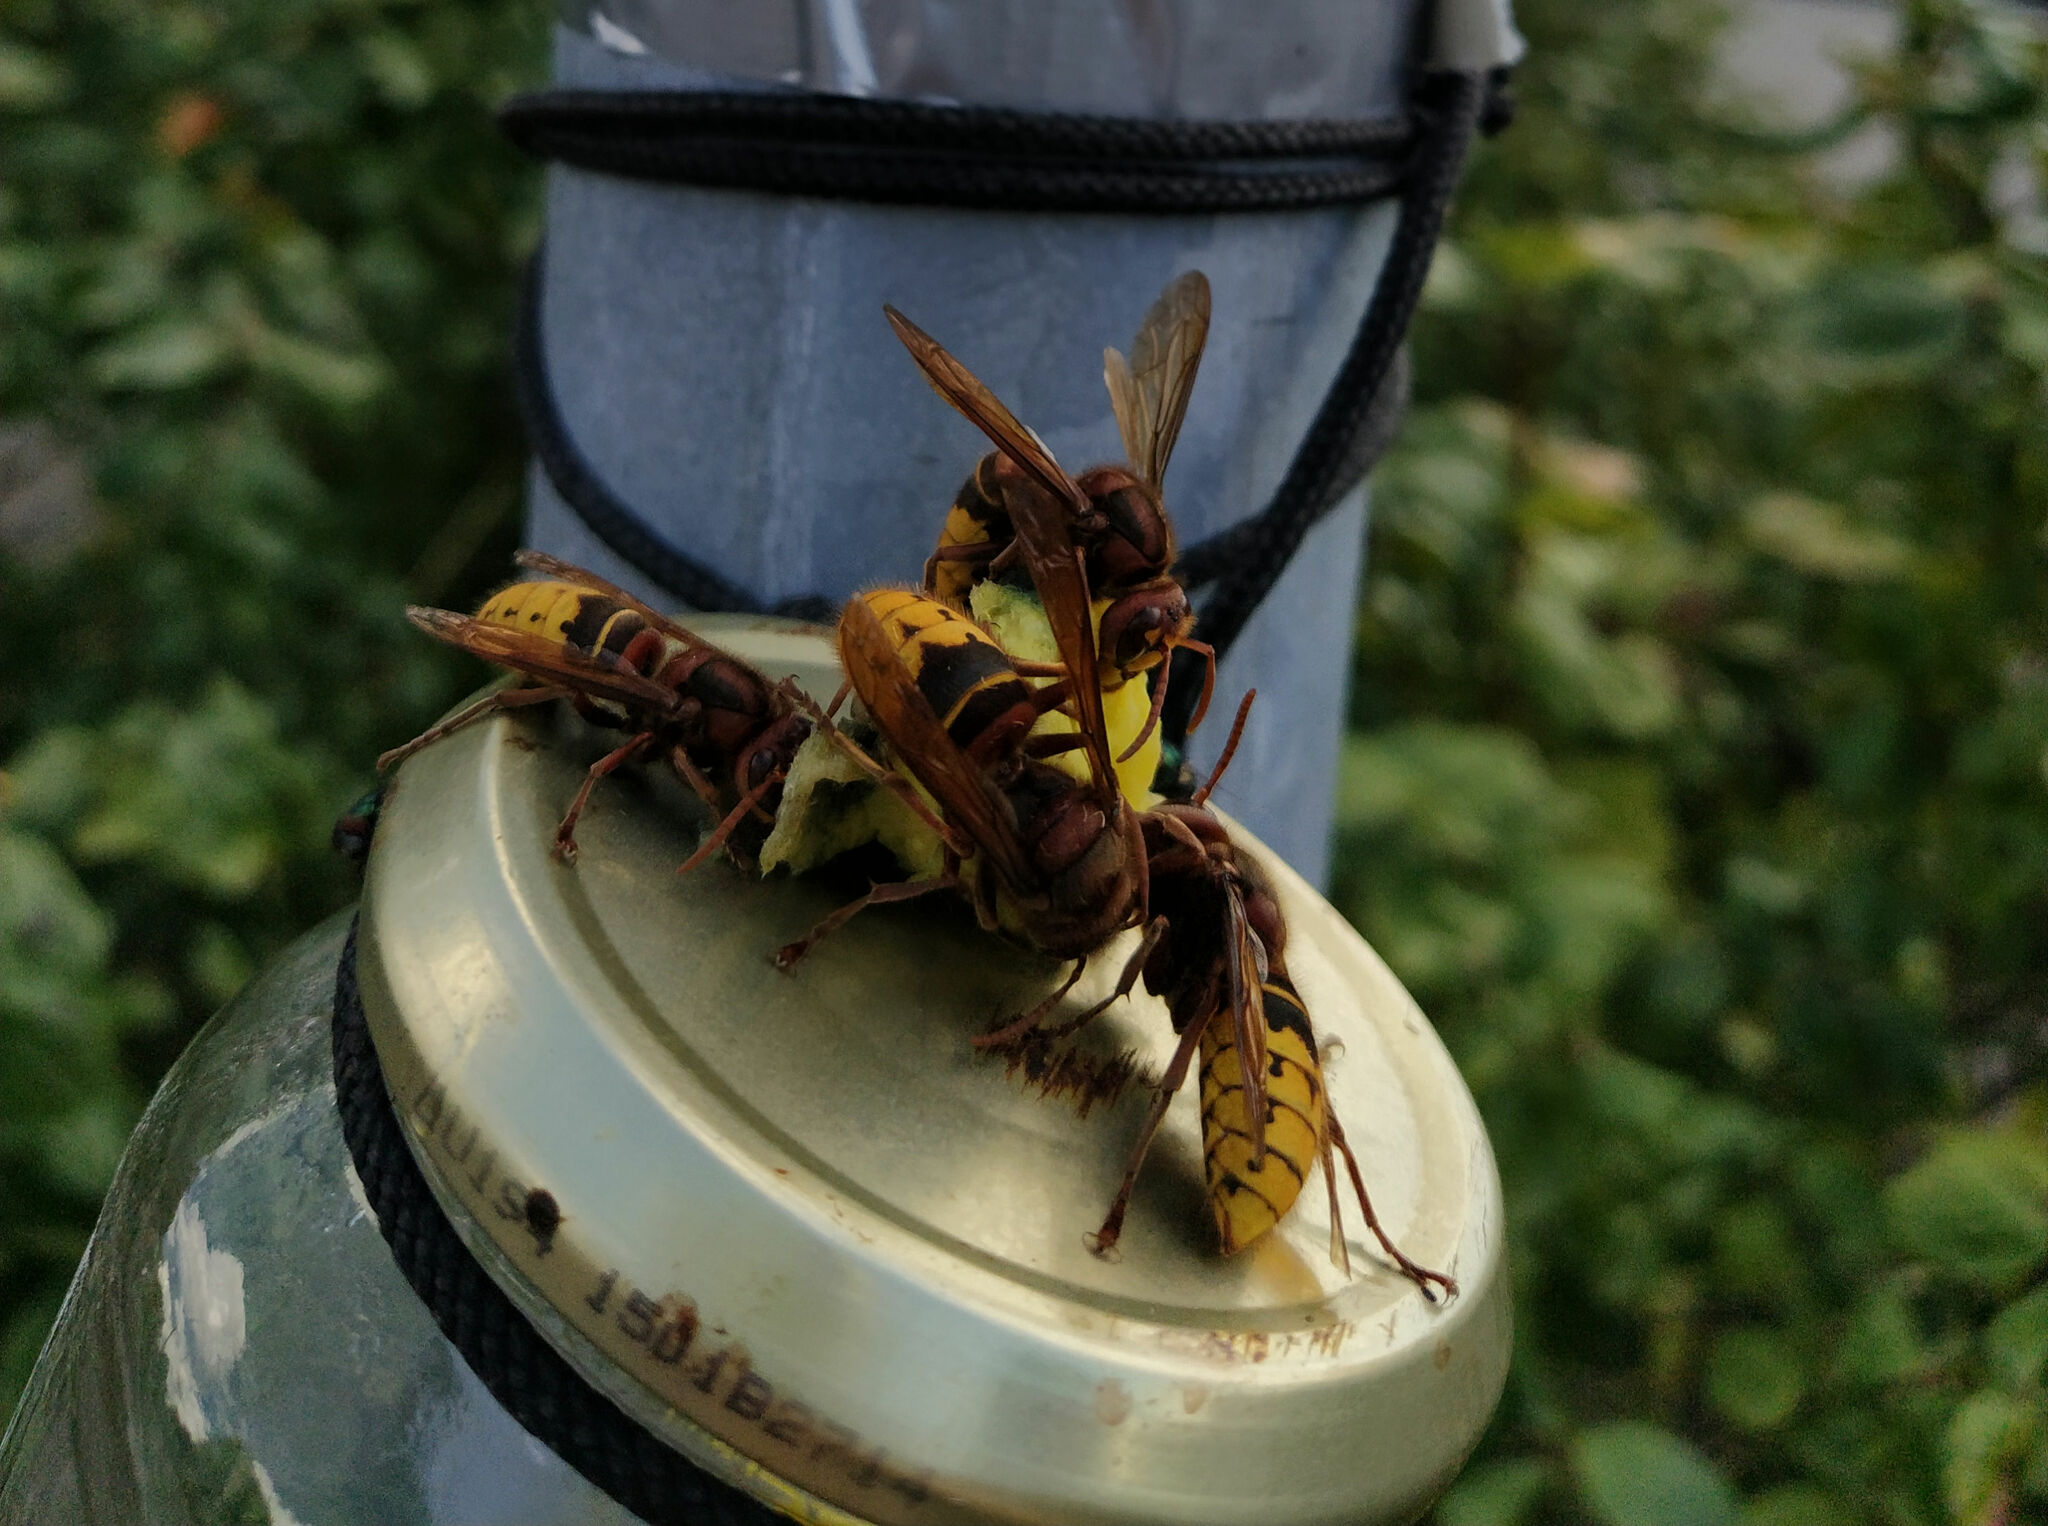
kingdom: Animalia
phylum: Arthropoda
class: Insecta
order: Hymenoptera
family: Vespidae
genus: Vespa
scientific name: Vespa crabro
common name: Hornet
